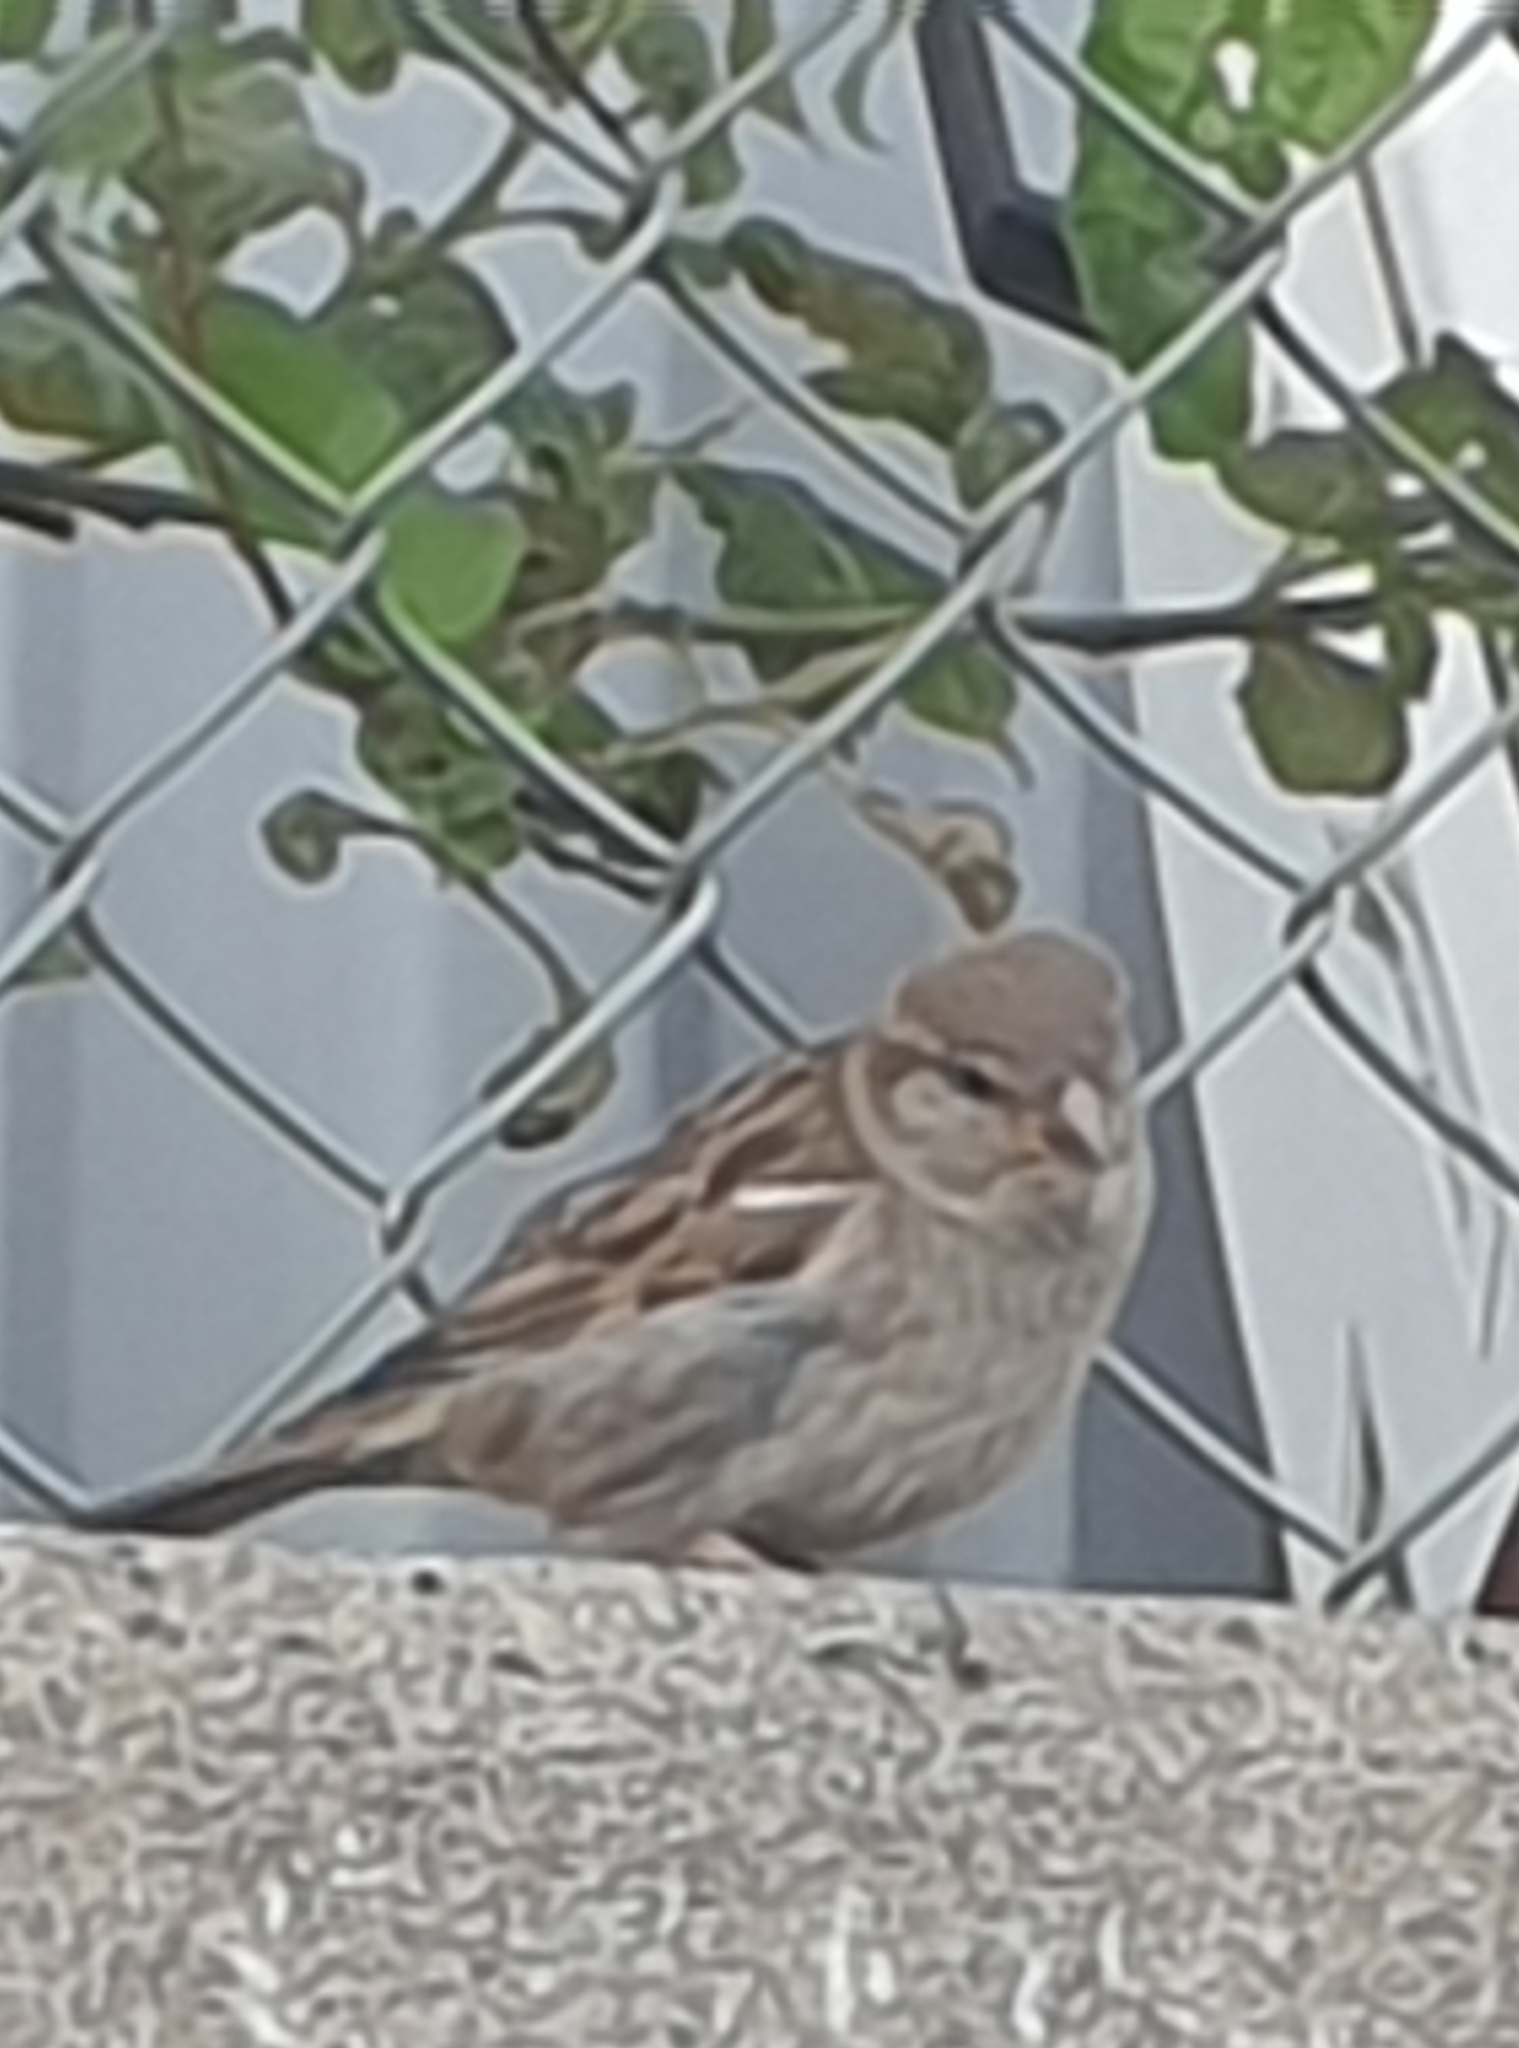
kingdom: Animalia
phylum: Chordata
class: Aves
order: Passeriformes
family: Passeridae
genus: Passer
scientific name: Passer domesticus
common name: House sparrow
